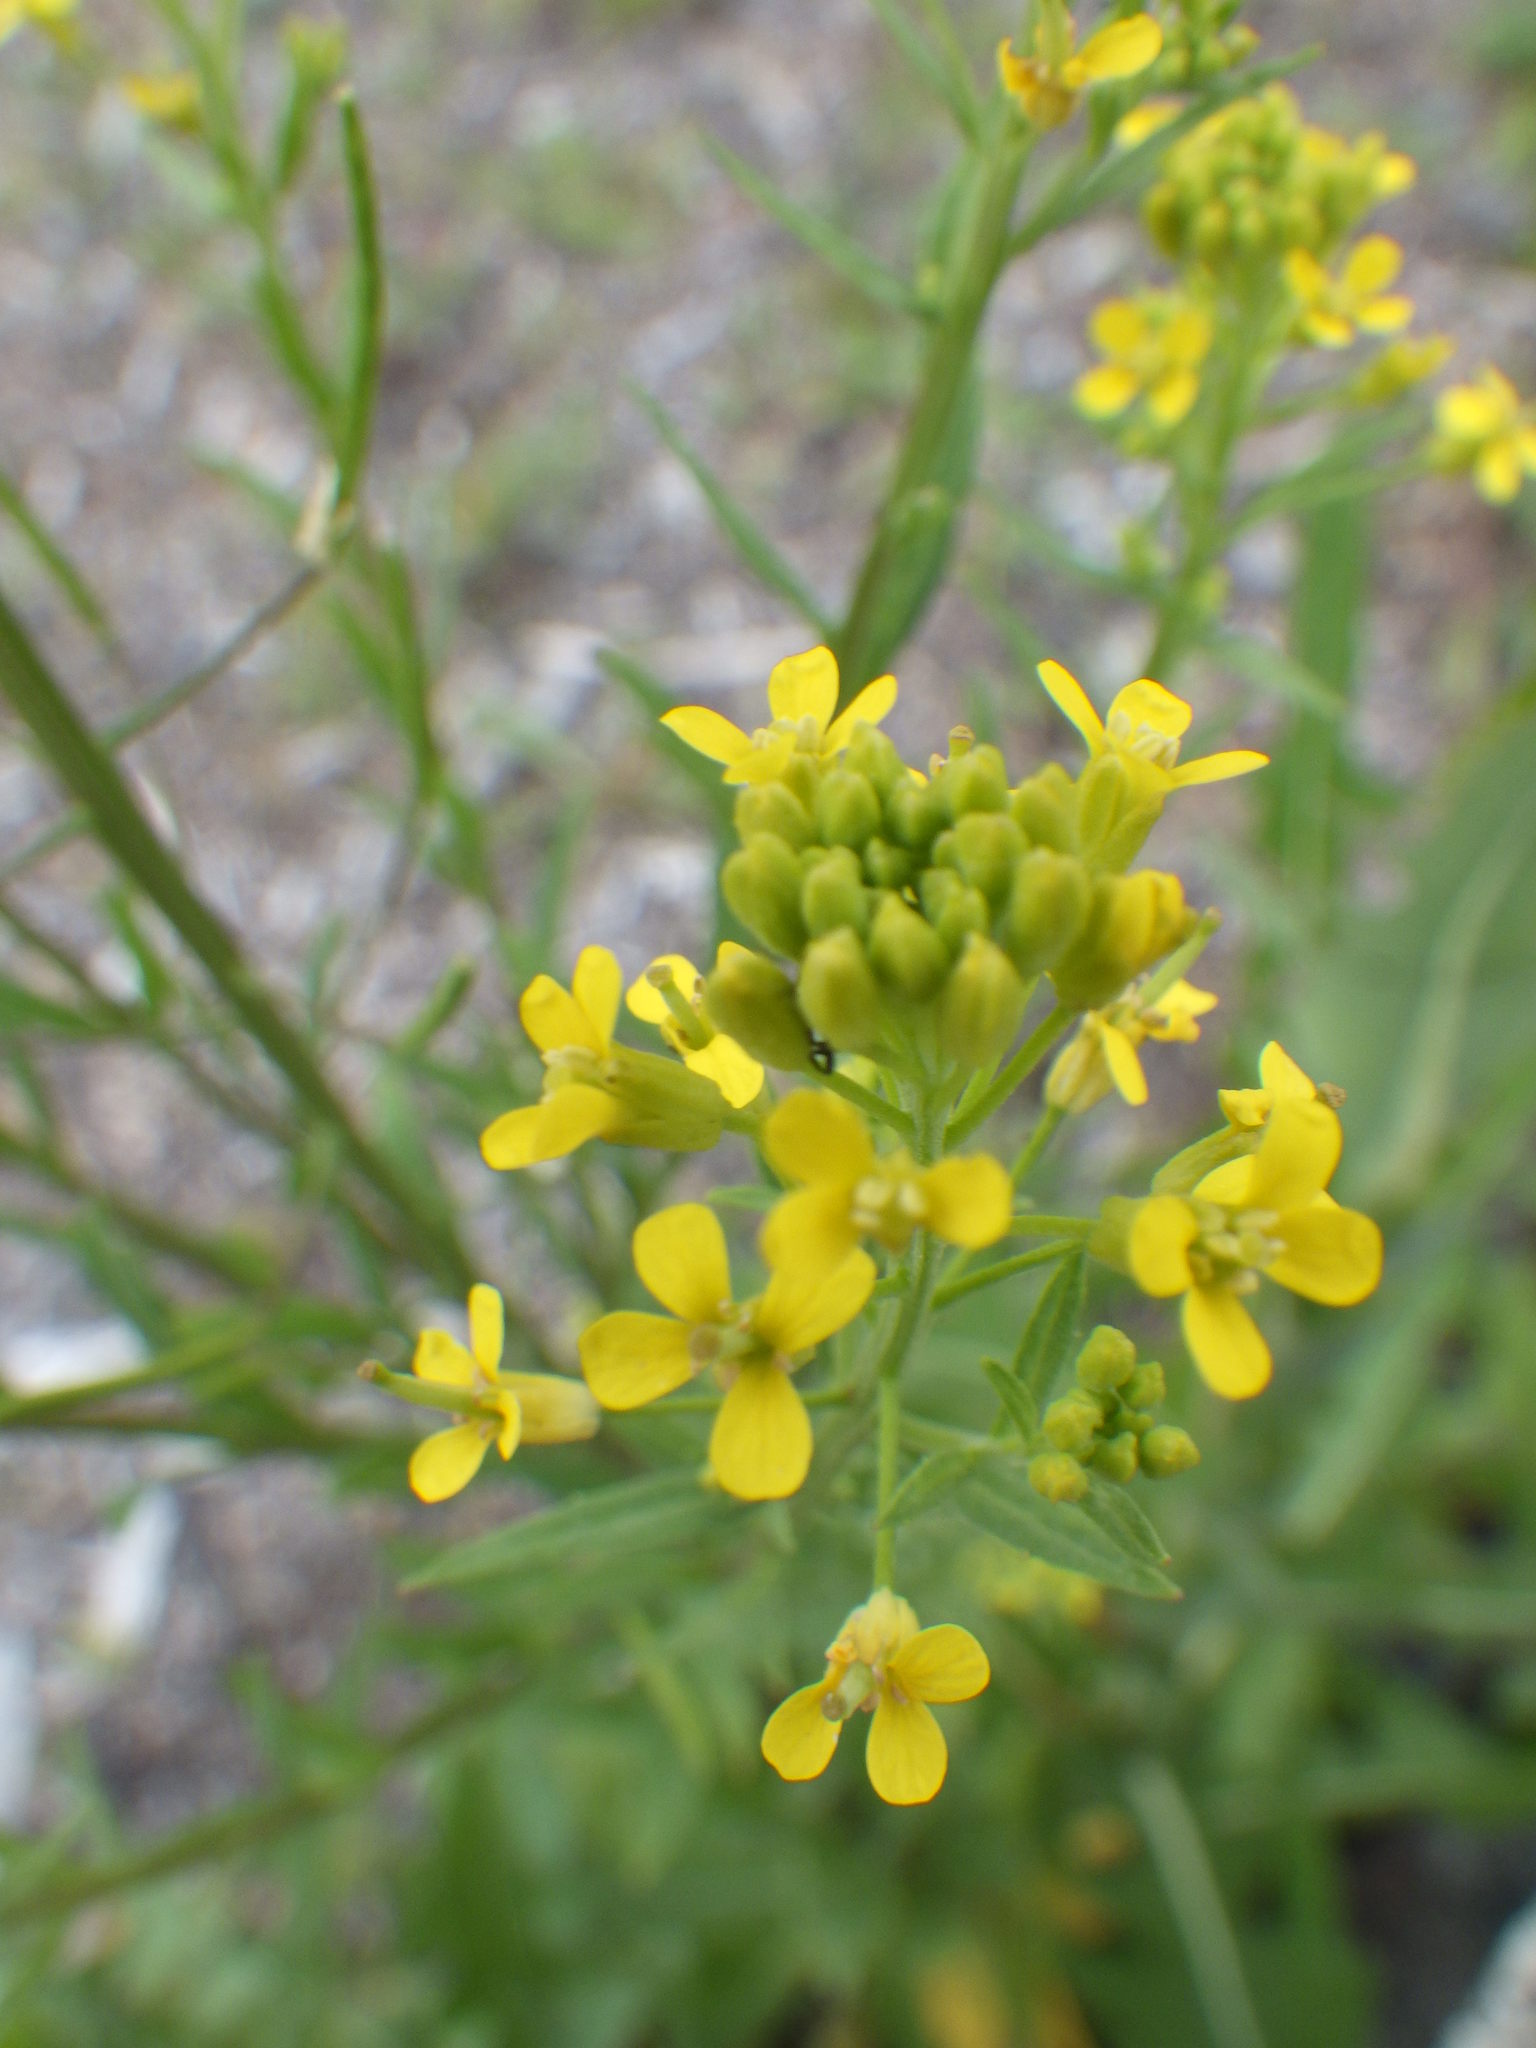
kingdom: Plantae
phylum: Tracheophyta
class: Magnoliopsida
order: Brassicales
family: Brassicaceae
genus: Erysimum
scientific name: Erysimum cheiranthoides
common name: Treacle mustard
